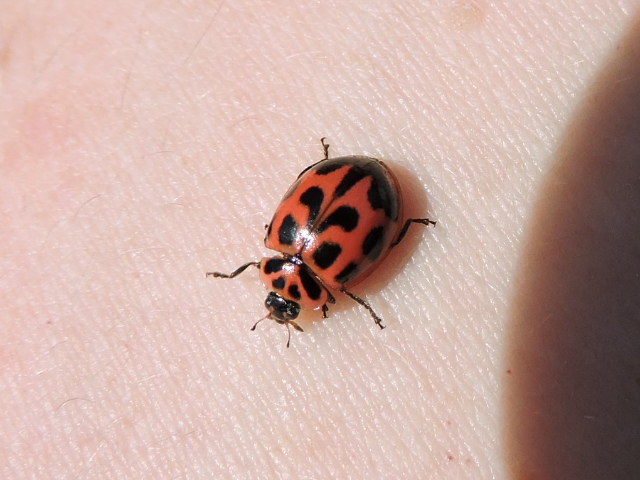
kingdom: Animalia
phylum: Arthropoda
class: Insecta
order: Coleoptera
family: Coccinellidae
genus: Neoharmonia
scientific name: Neoharmonia venusta
